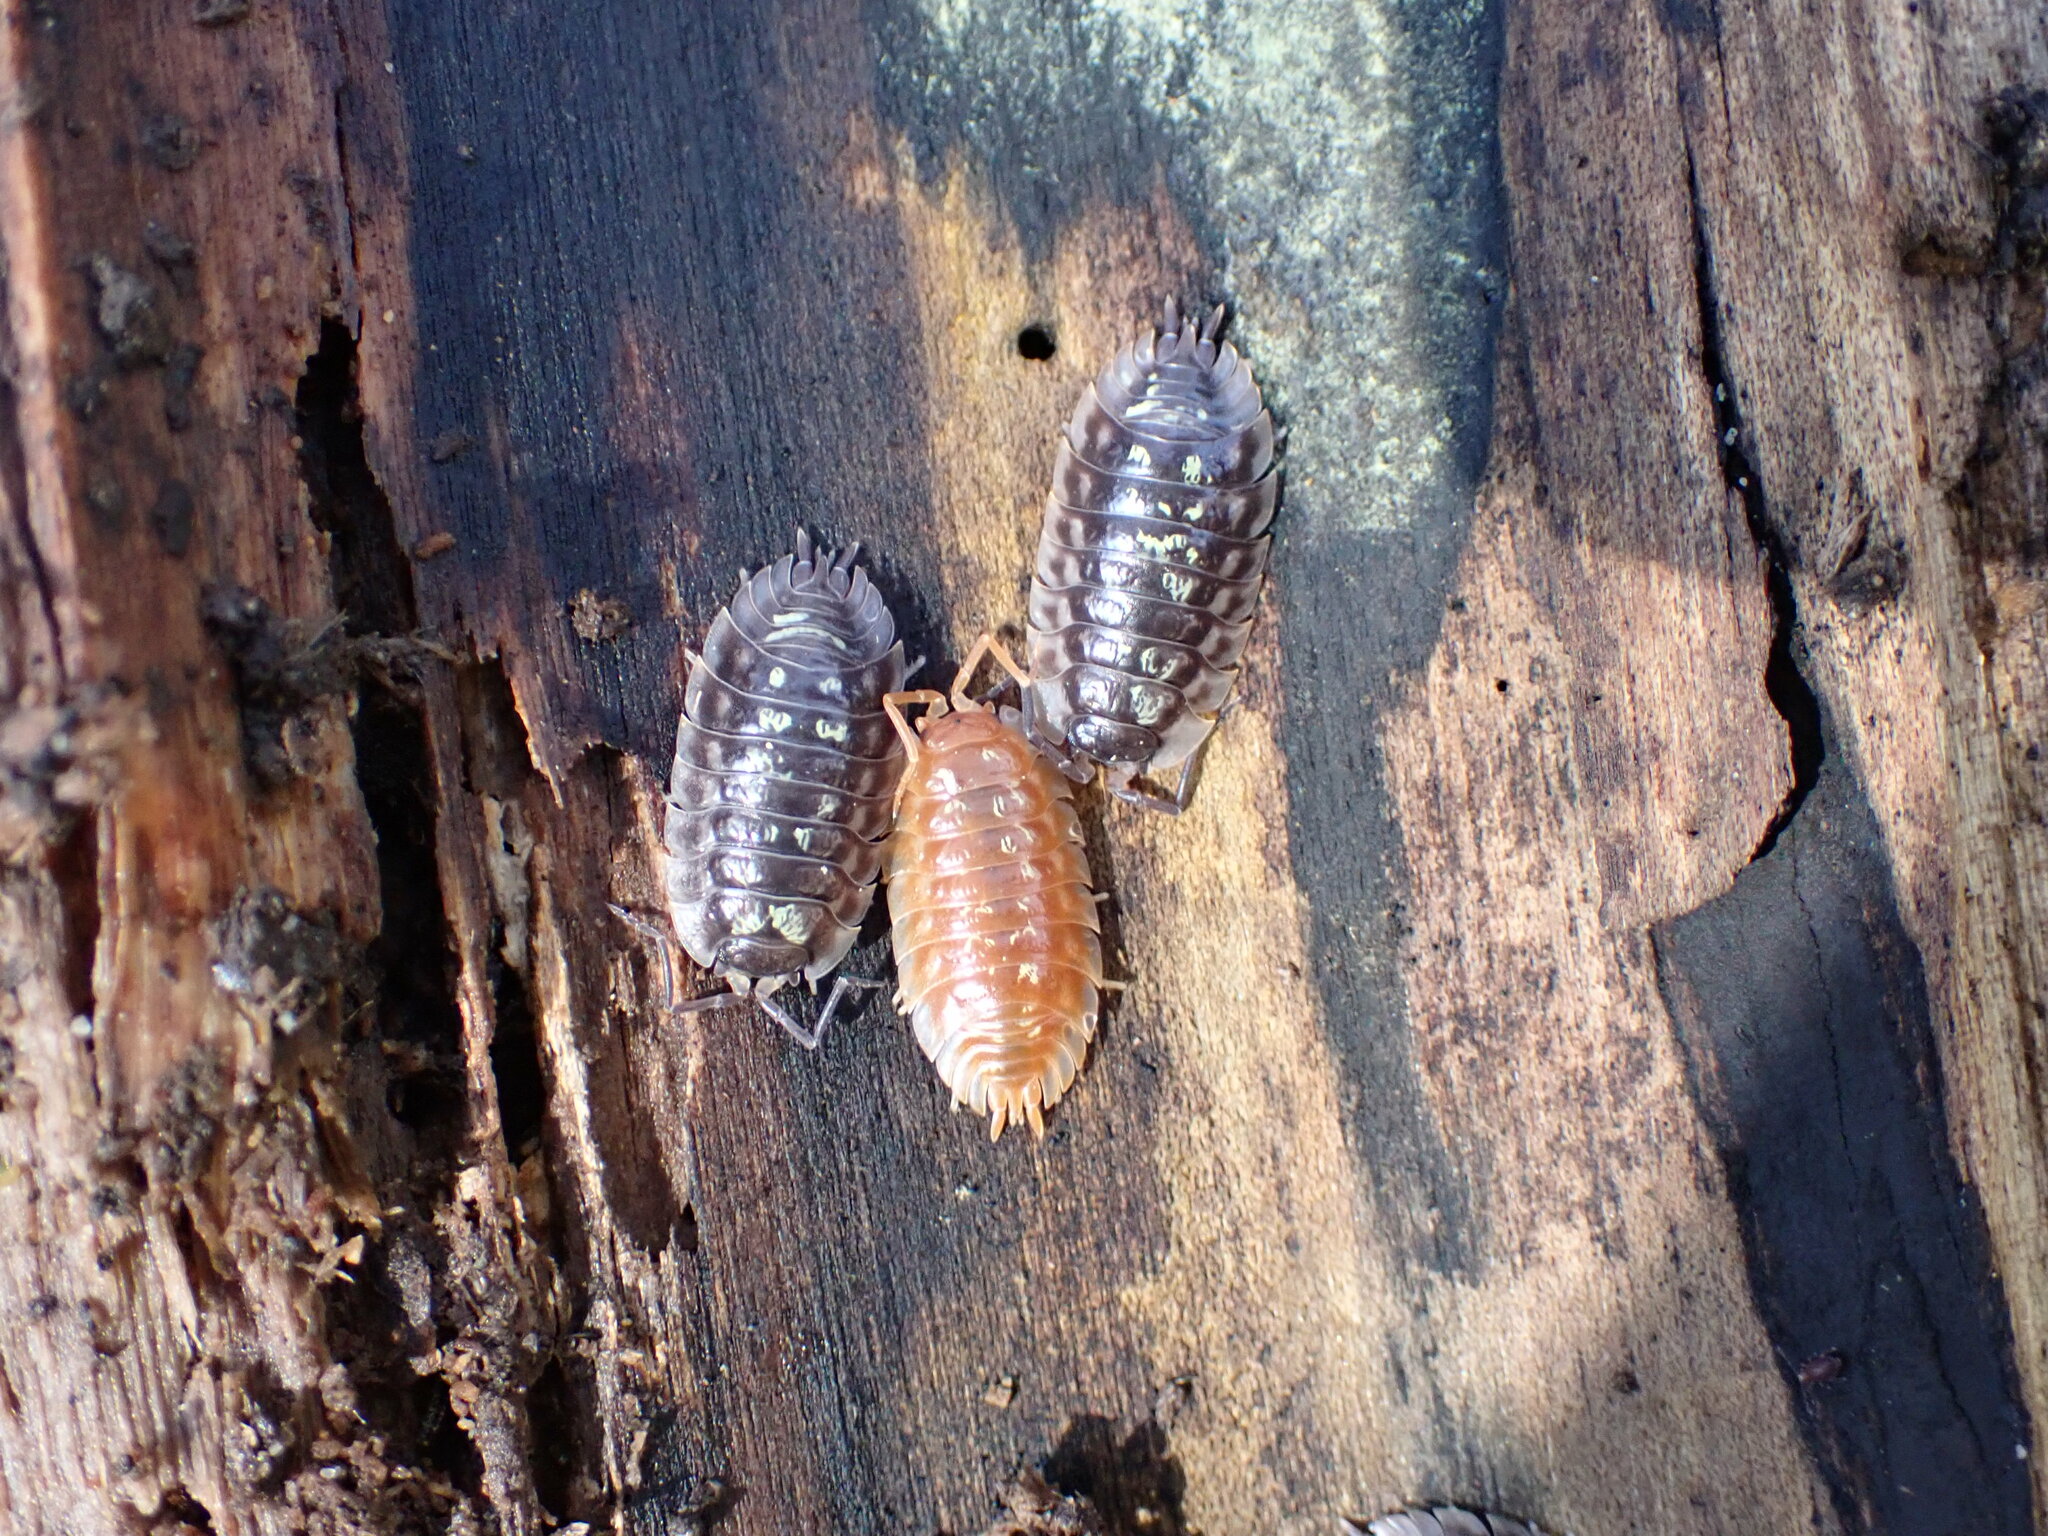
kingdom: Animalia
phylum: Arthropoda
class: Malacostraca
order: Isopoda
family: Oniscidae
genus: Oniscus
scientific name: Oniscus asellus
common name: Common shiny woodlouse
